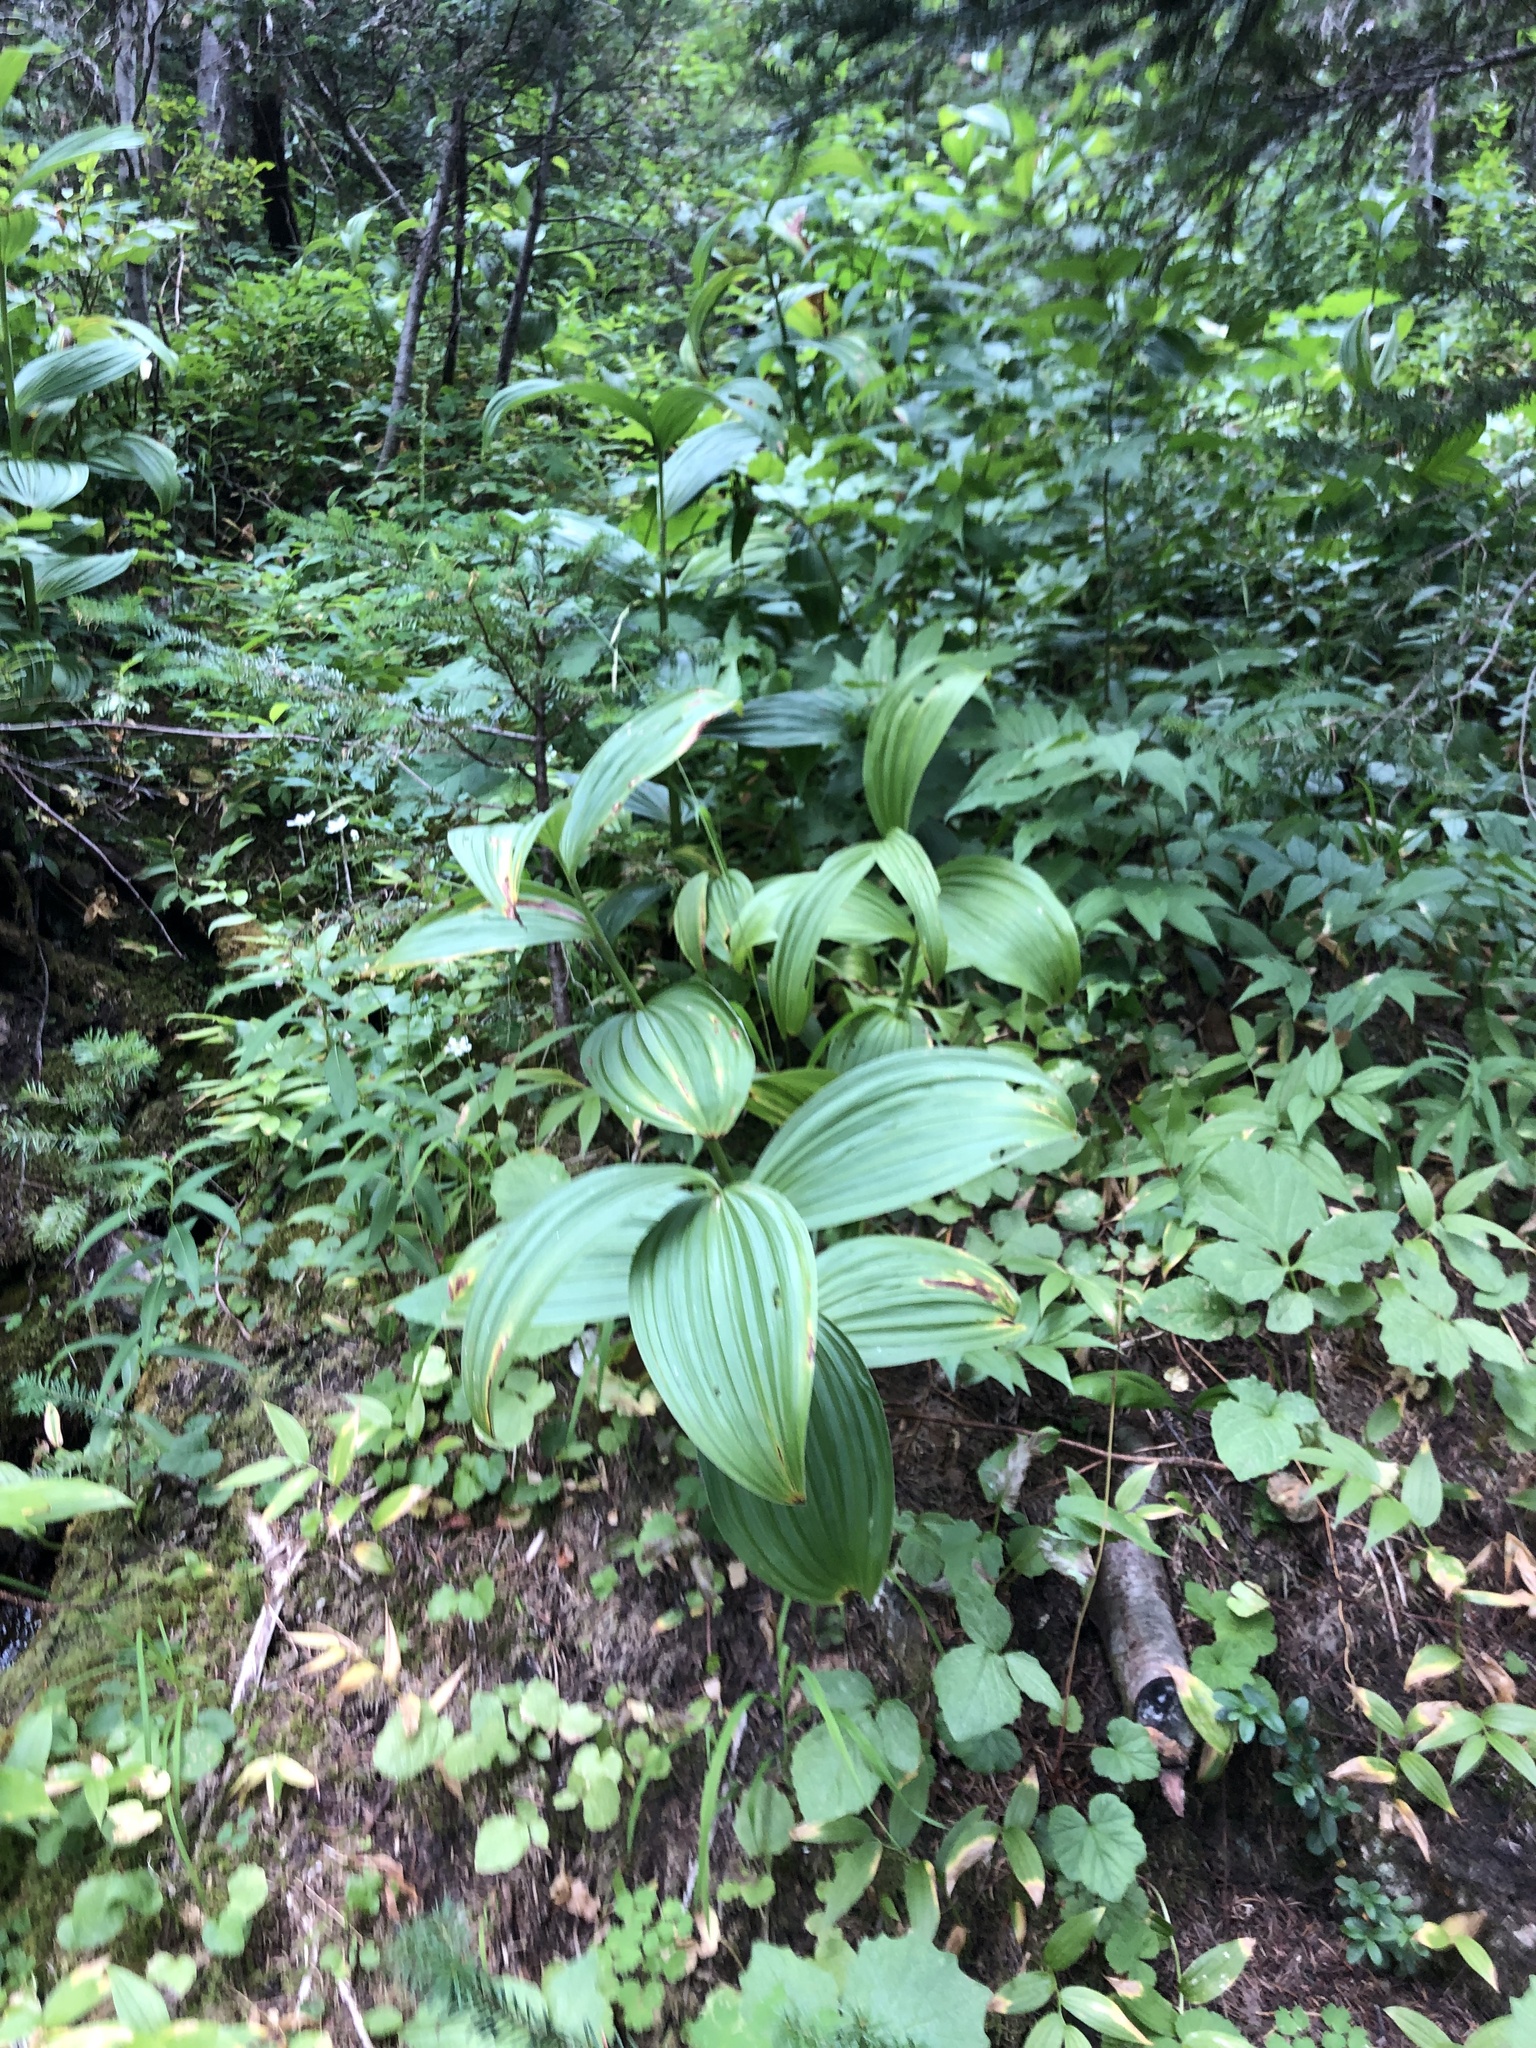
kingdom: Plantae
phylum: Tracheophyta
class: Liliopsida
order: Liliales
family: Melanthiaceae
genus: Veratrum
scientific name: Veratrum viride
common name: American false hellebore
